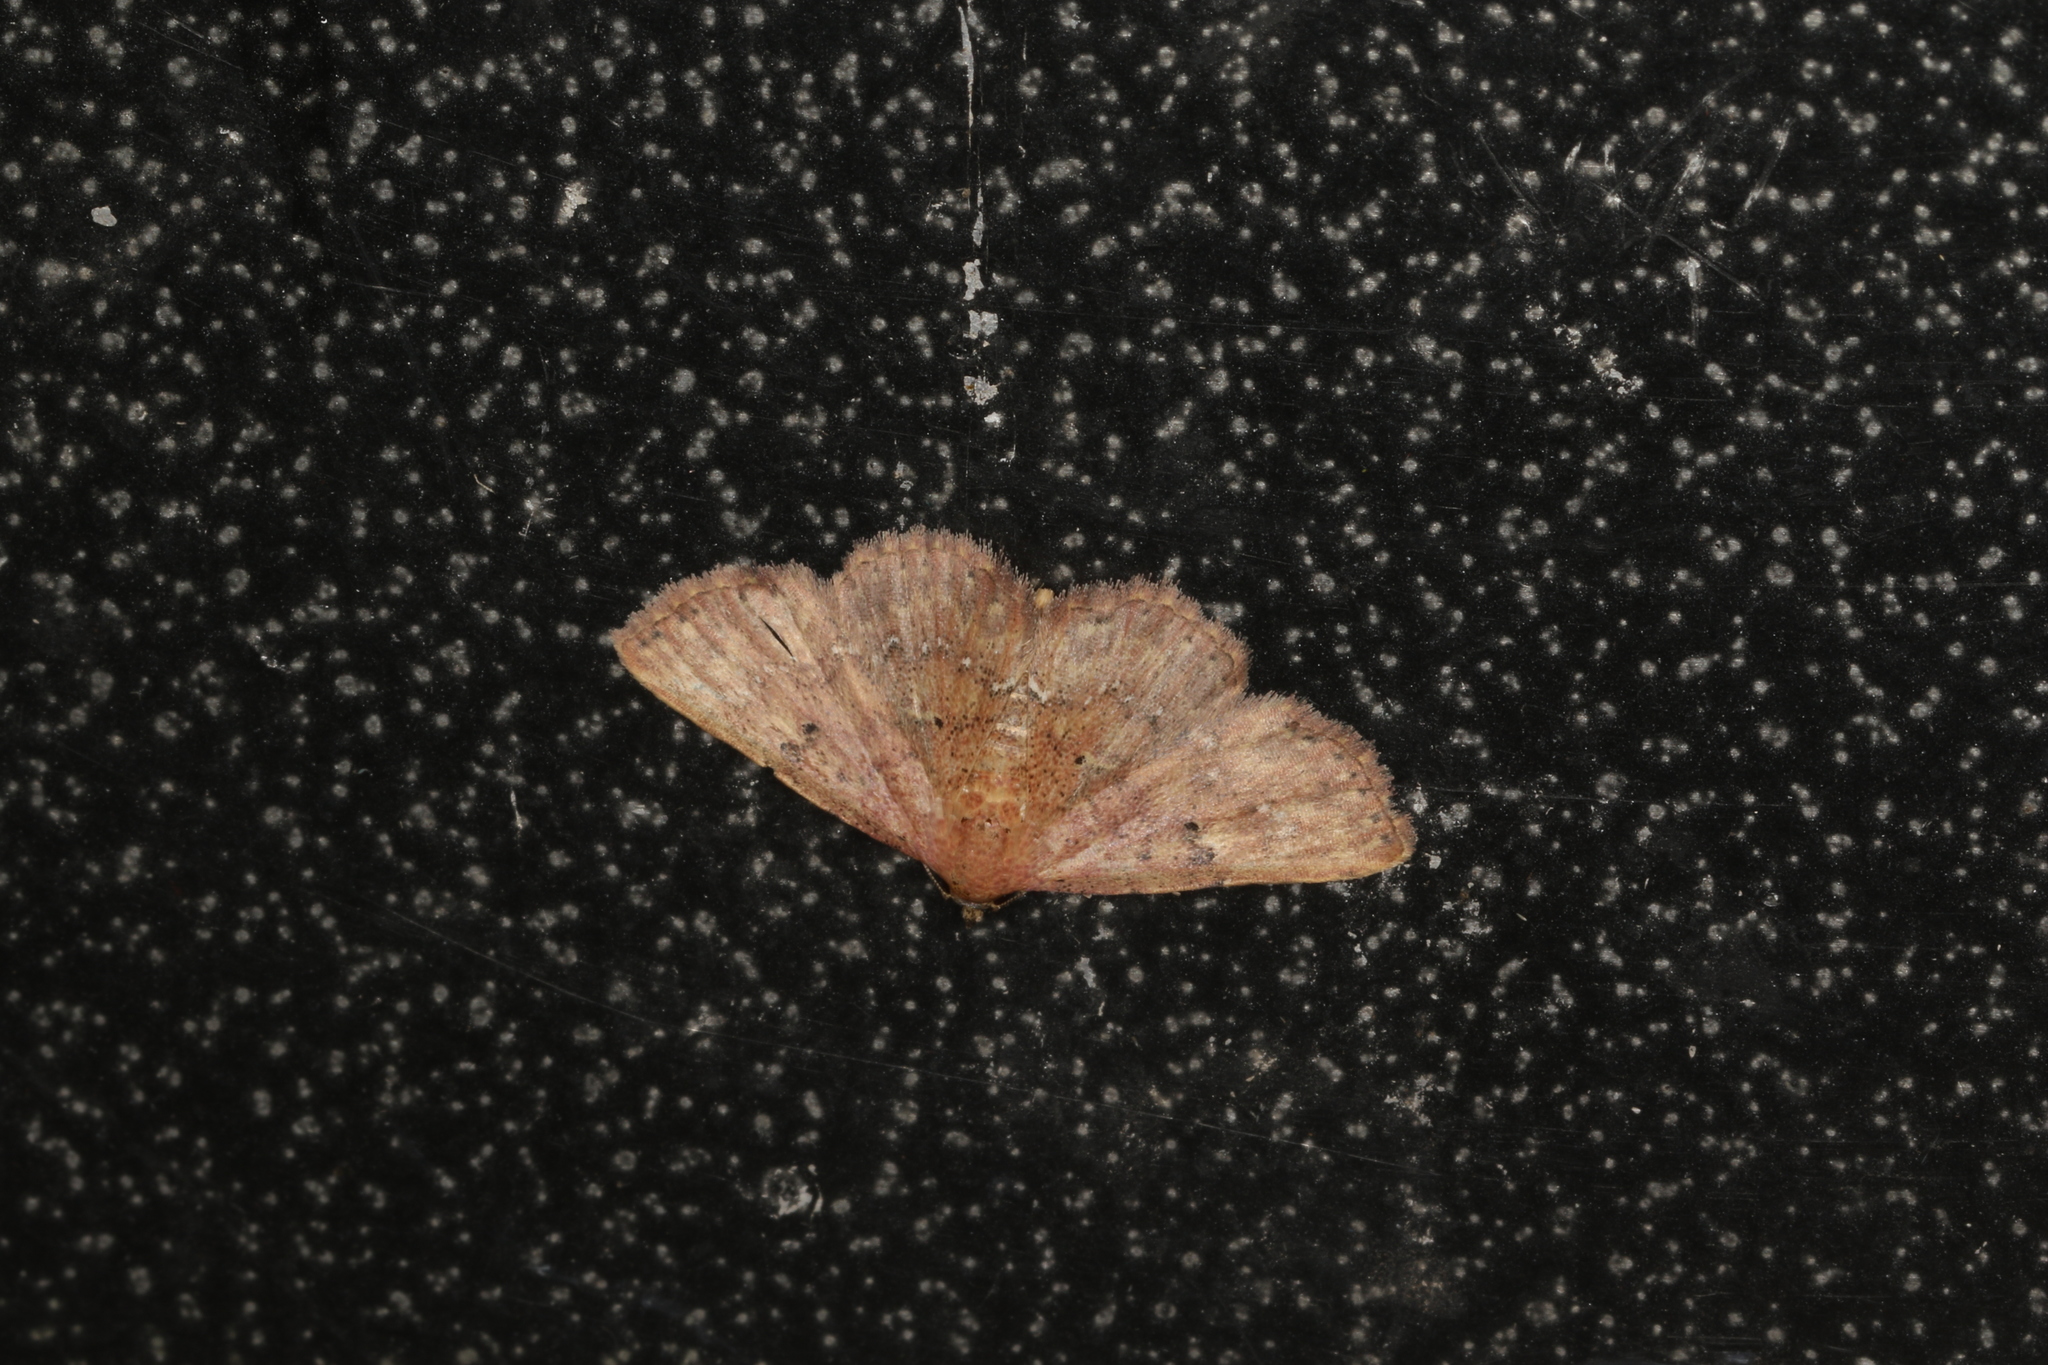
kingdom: Animalia
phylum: Arthropoda
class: Insecta
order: Lepidoptera
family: Noctuidae
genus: Cerynea
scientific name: Cerynea trogobasis
